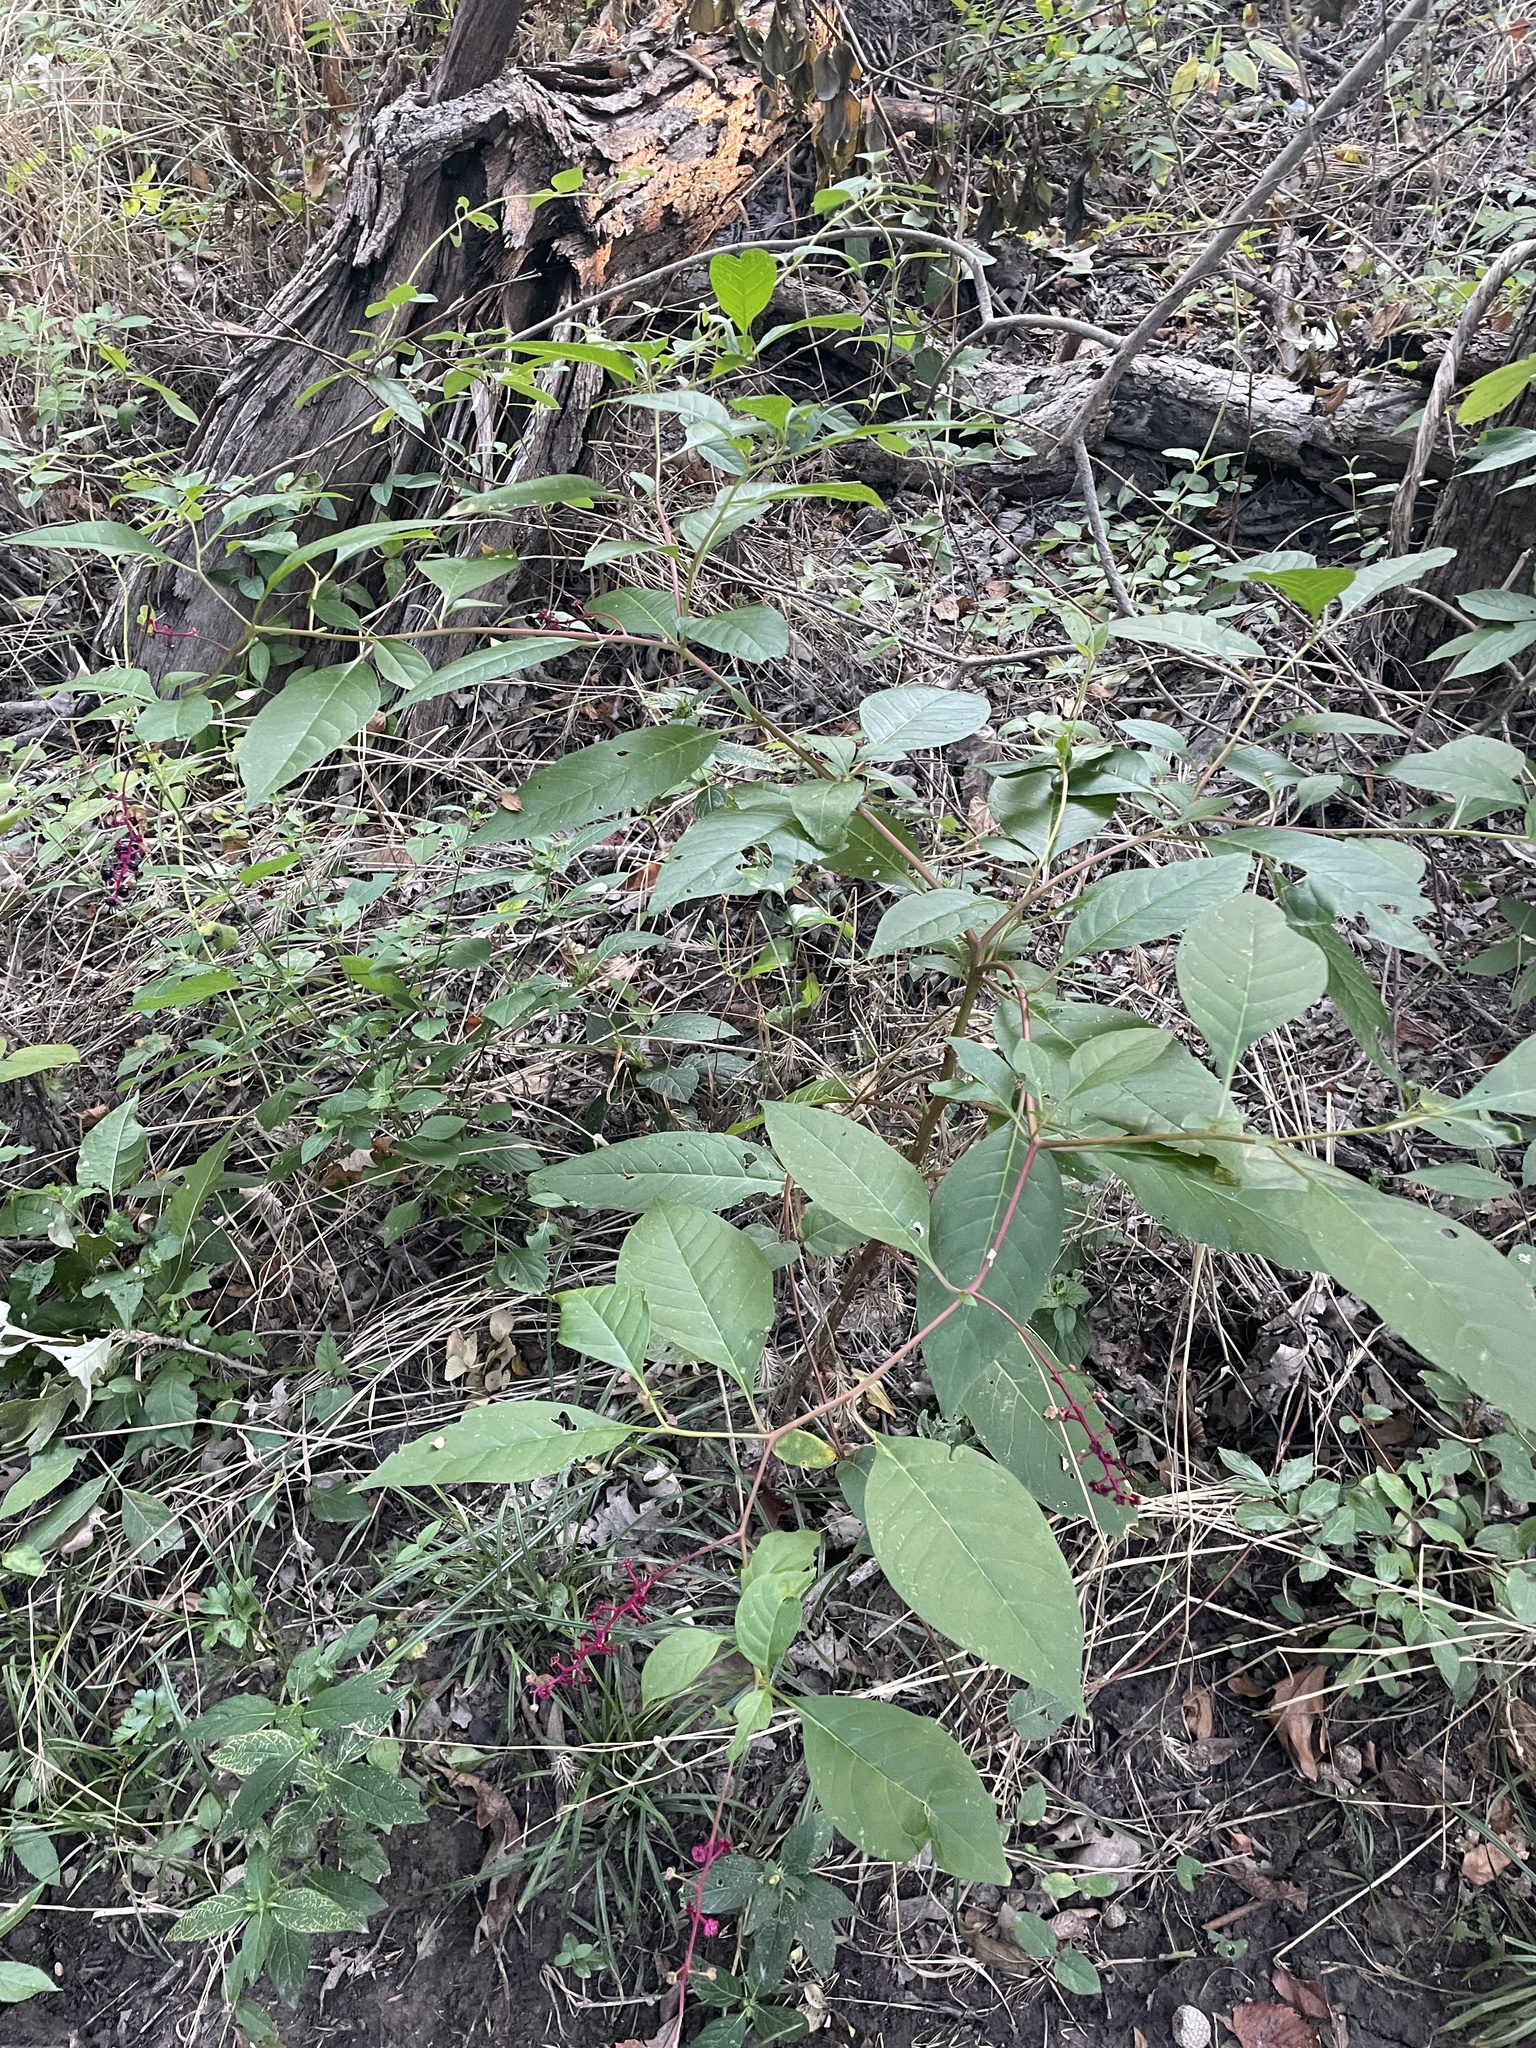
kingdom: Plantae
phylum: Tracheophyta
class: Magnoliopsida
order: Caryophyllales
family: Phytolaccaceae
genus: Phytolacca
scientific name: Phytolacca americana
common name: American pokeweed
